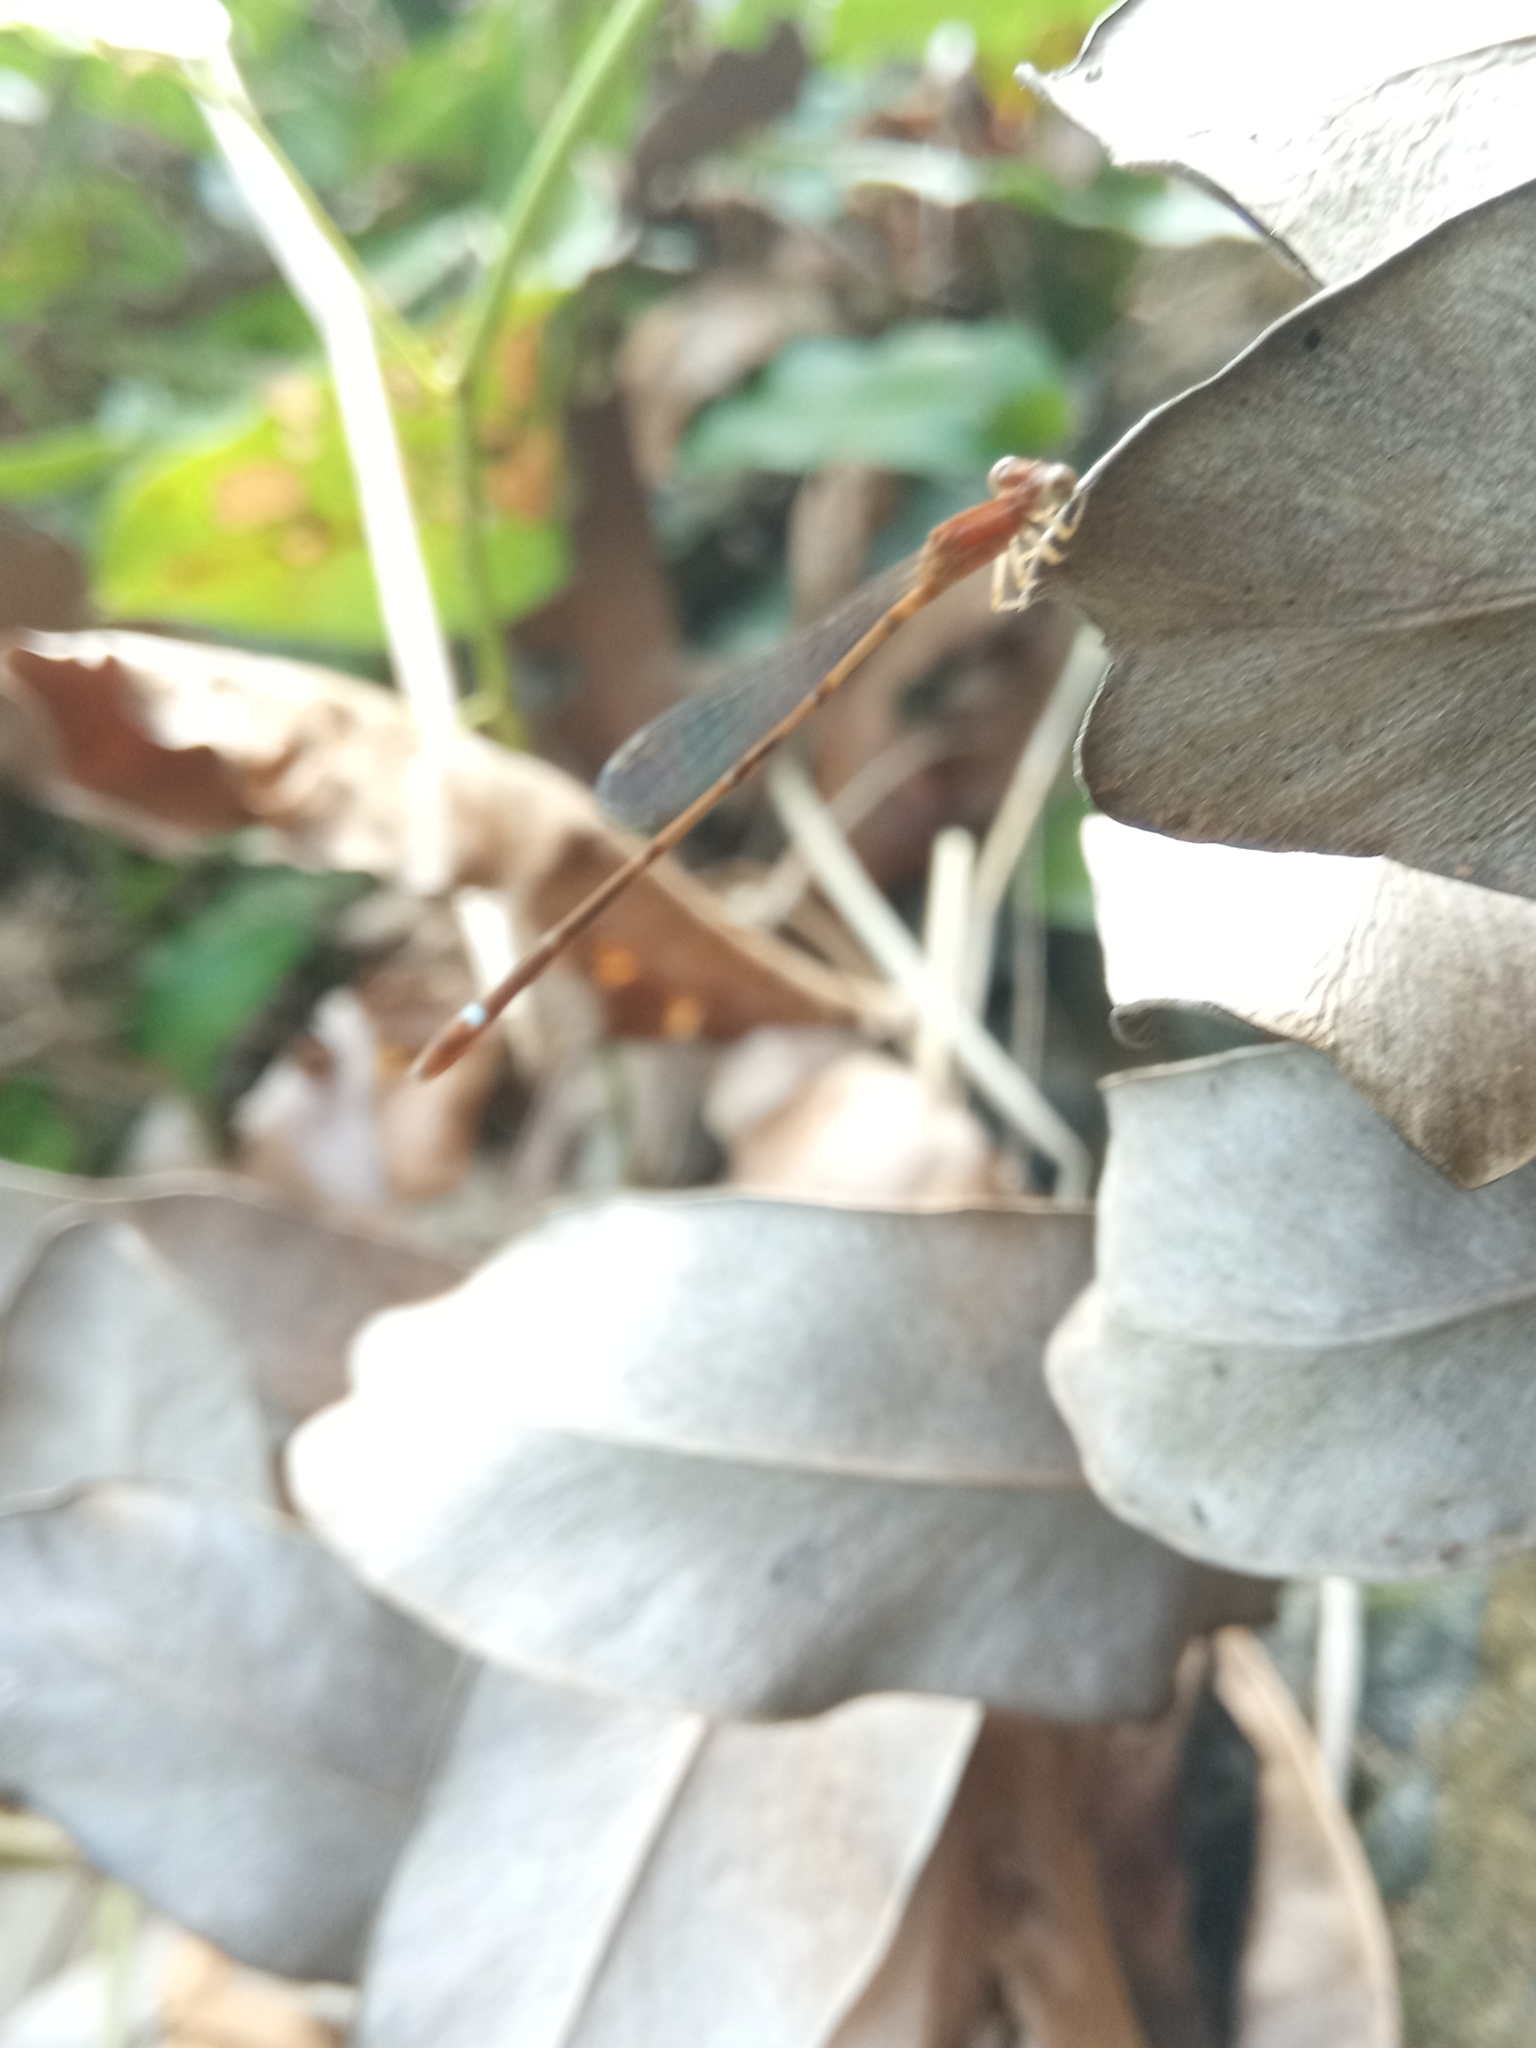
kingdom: Animalia
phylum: Arthropoda
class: Insecta
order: Odonata
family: Coenagrionidae
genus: Mortonagrion
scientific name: Mortonagrion varralli
